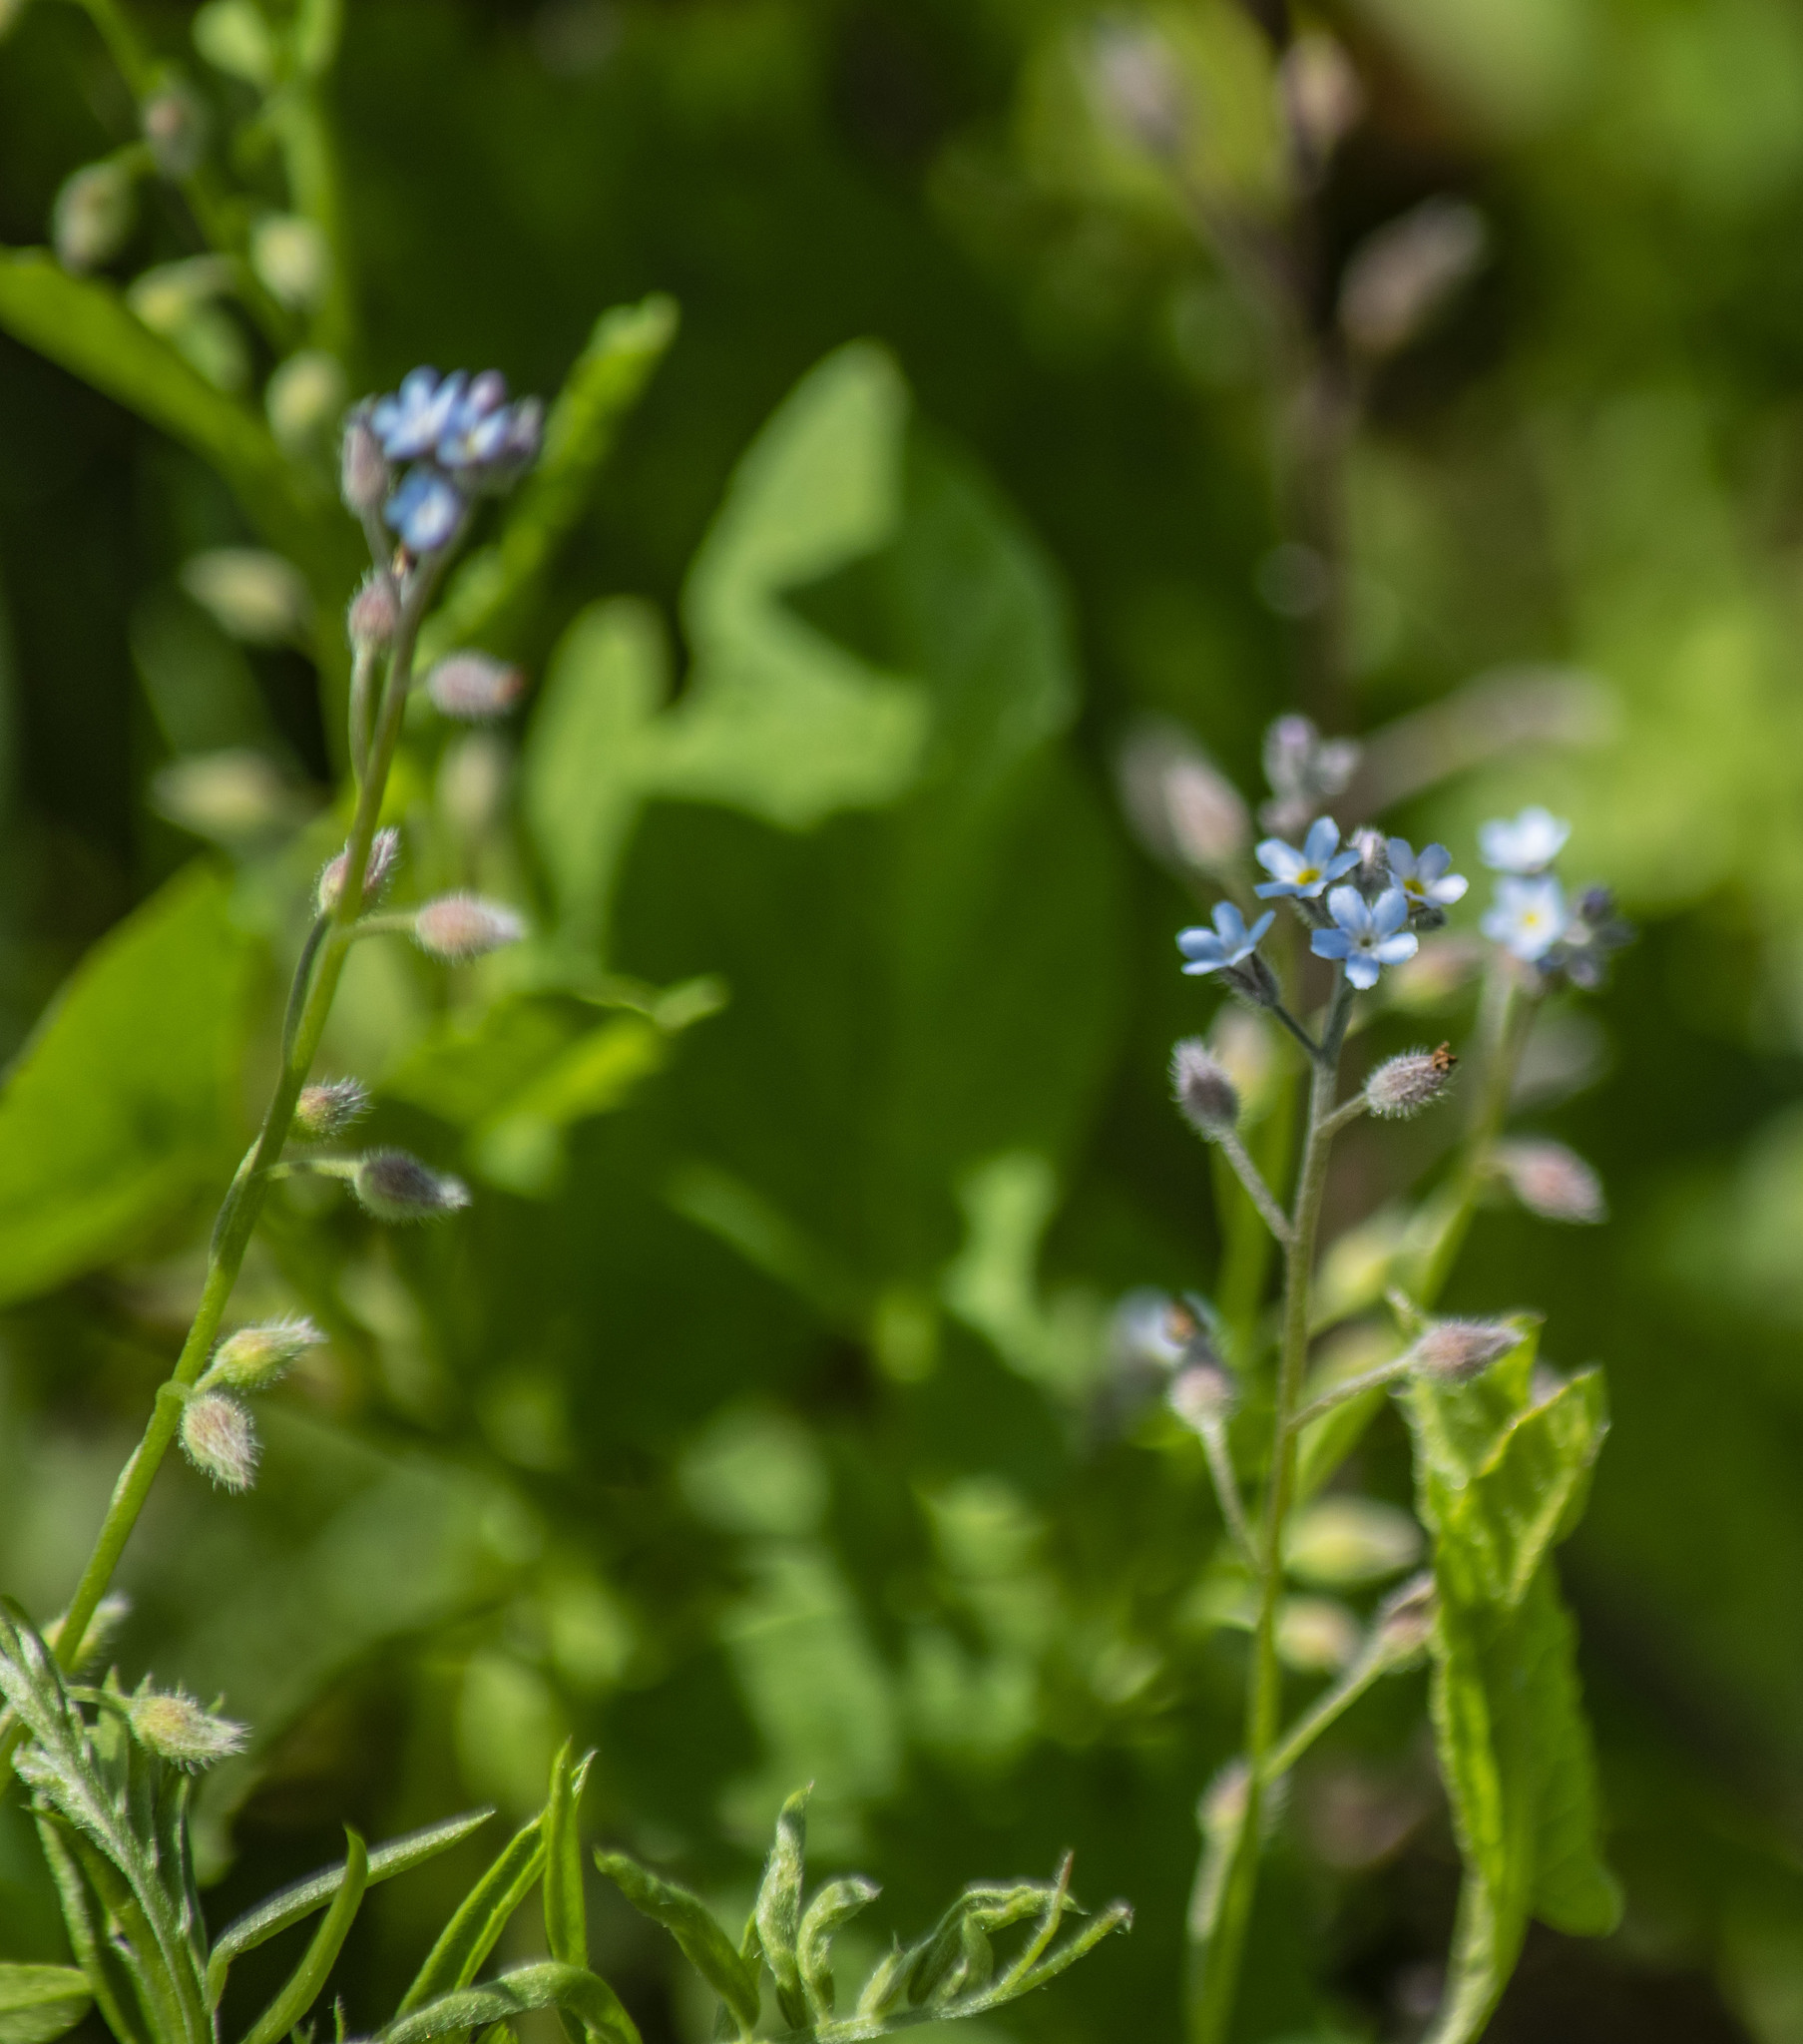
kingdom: Plantae
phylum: Tracheophyta
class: Magnoliopsida
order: Boraginales
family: Boraginaceae
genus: Myosotis
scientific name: Myosotis arvensis
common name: Field forget-me-not
